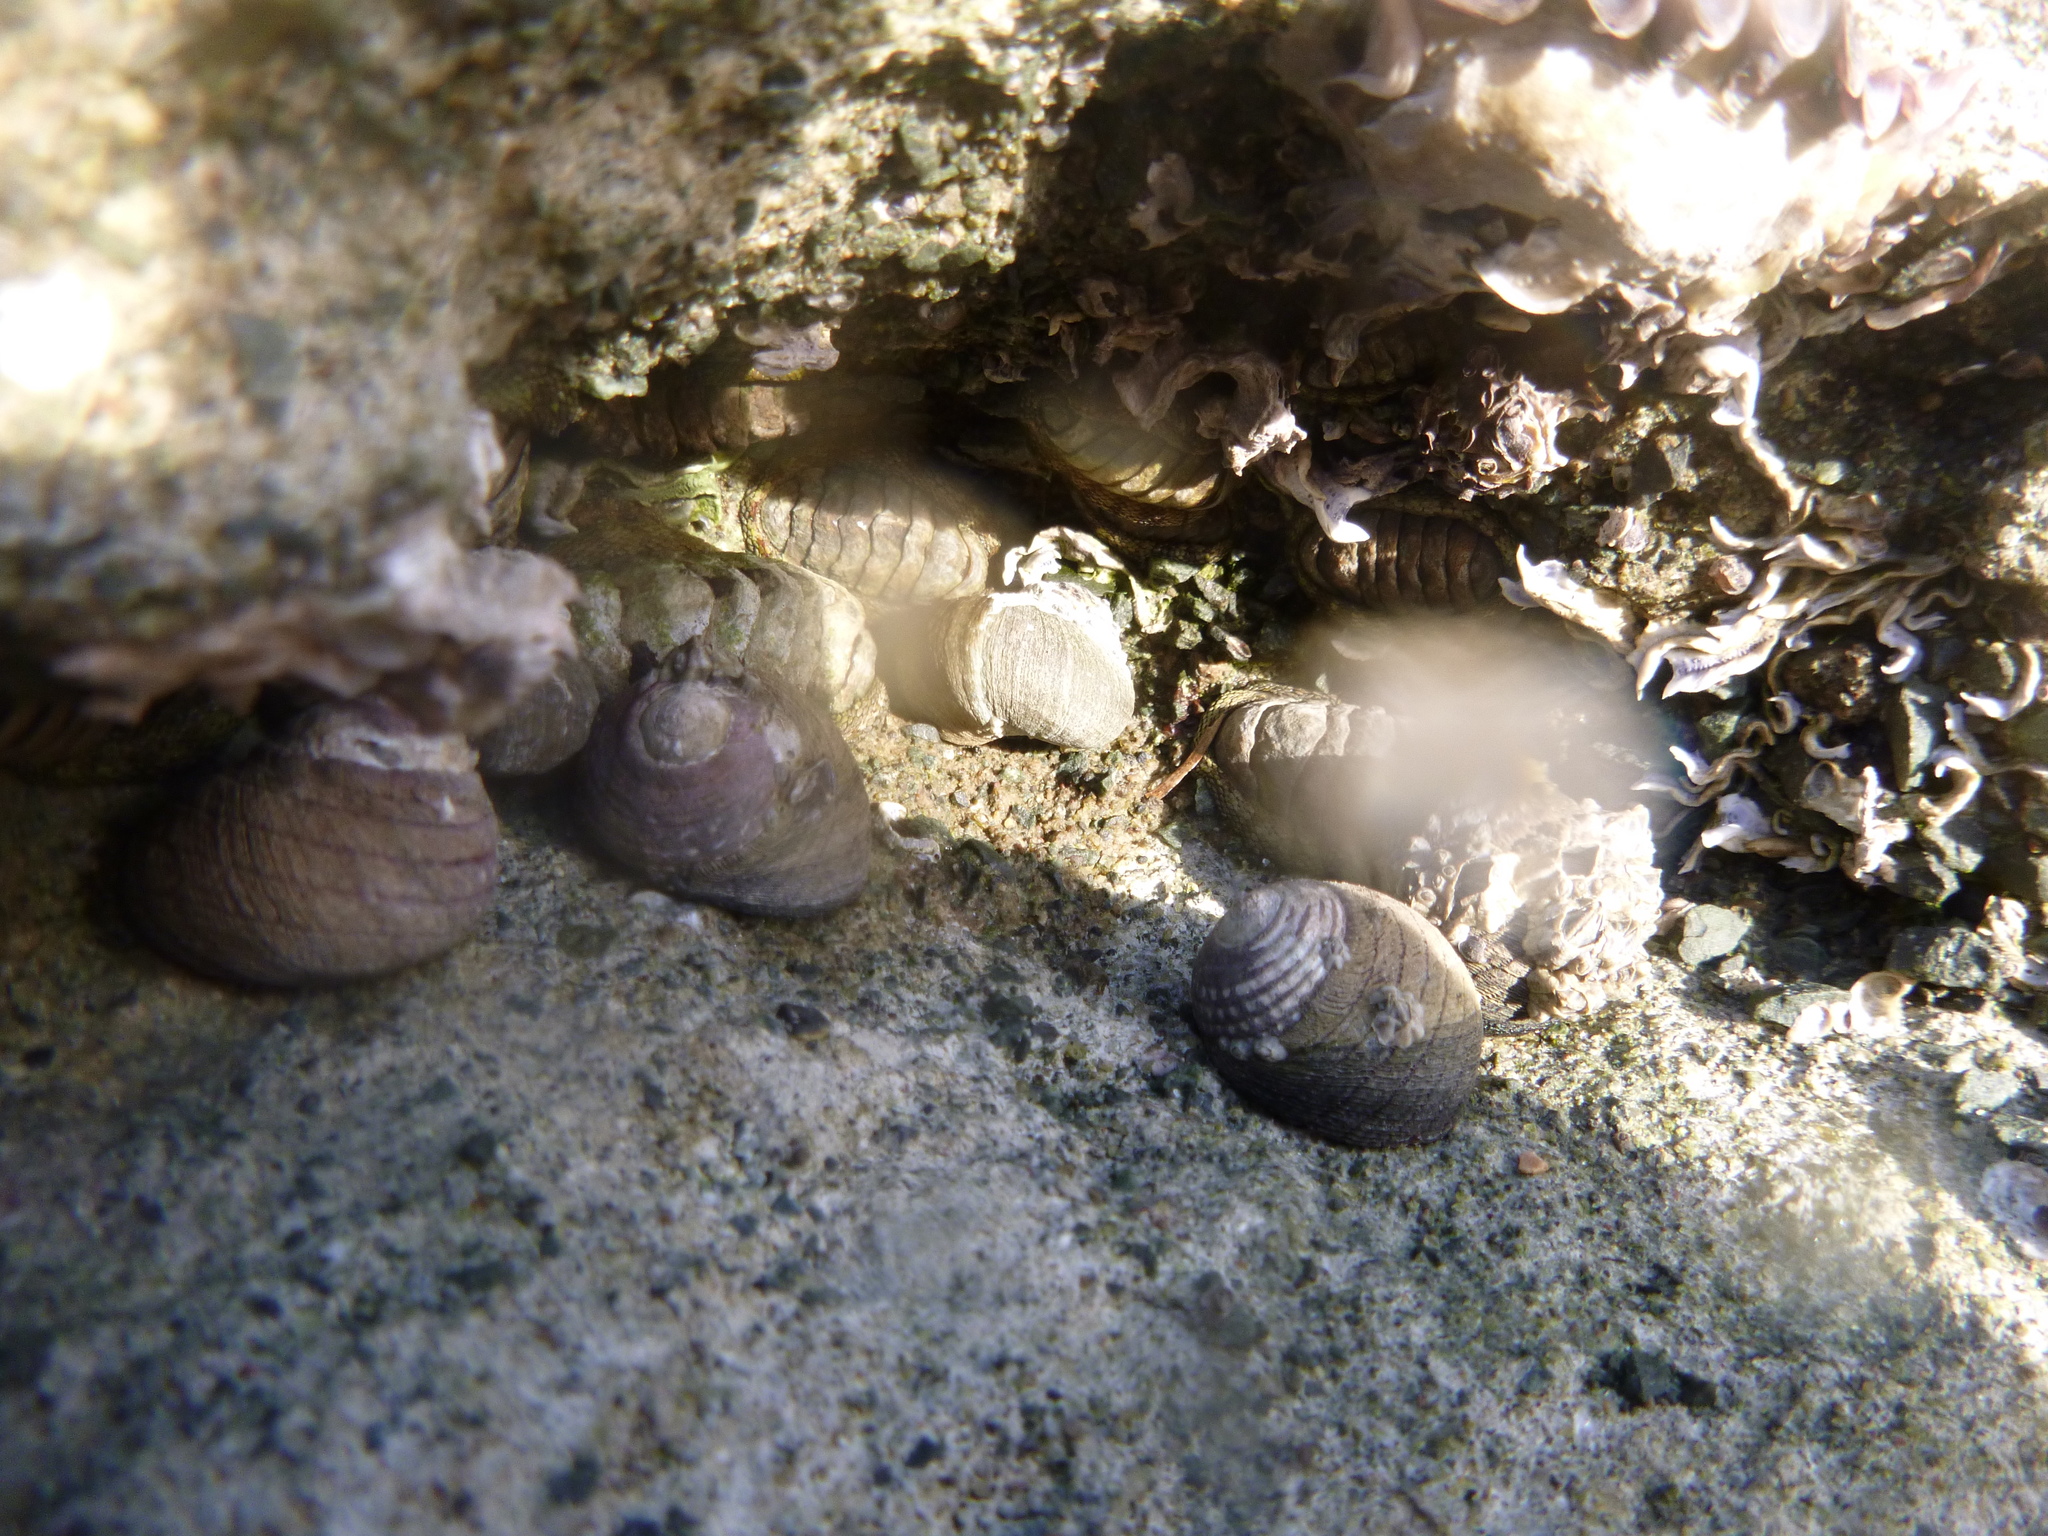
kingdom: Animalia
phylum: Mollusca
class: Gastropoda
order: Trochida
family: Trochidae
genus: Diloma
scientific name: Diloma aethiops
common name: Scorched monodont
